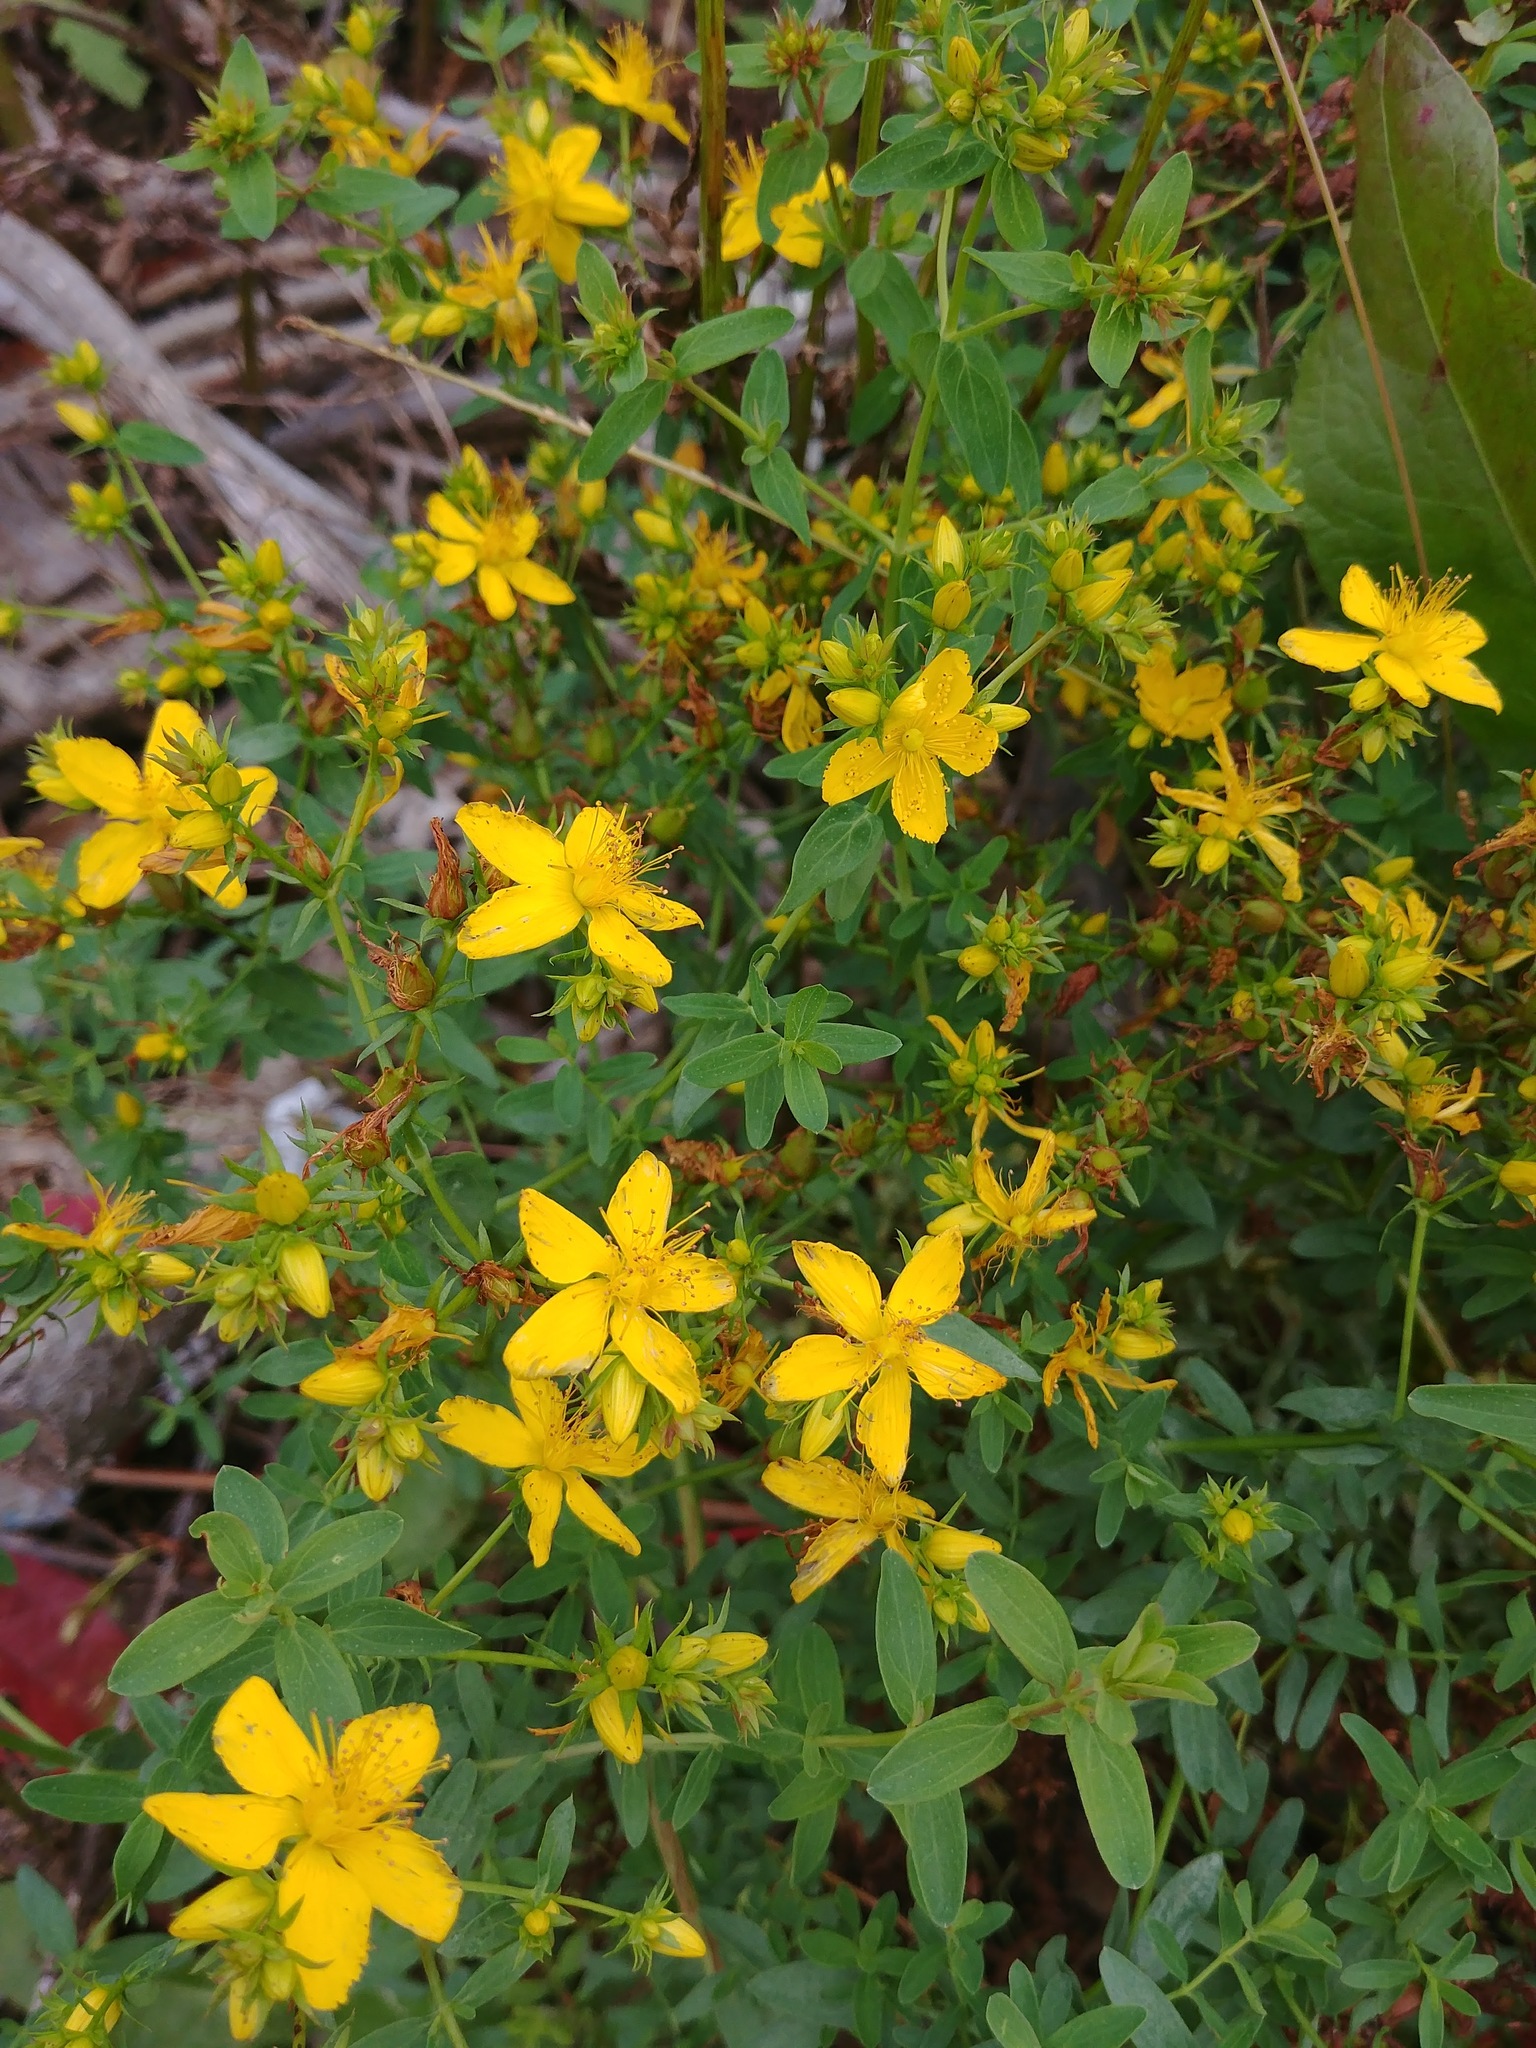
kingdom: Plantae
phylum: Tracheophyta
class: Magnoliopsida
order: Malpighiales
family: Hypericaceae
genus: Hypericum
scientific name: Hypericum perforatum
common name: Common st. johnswort
